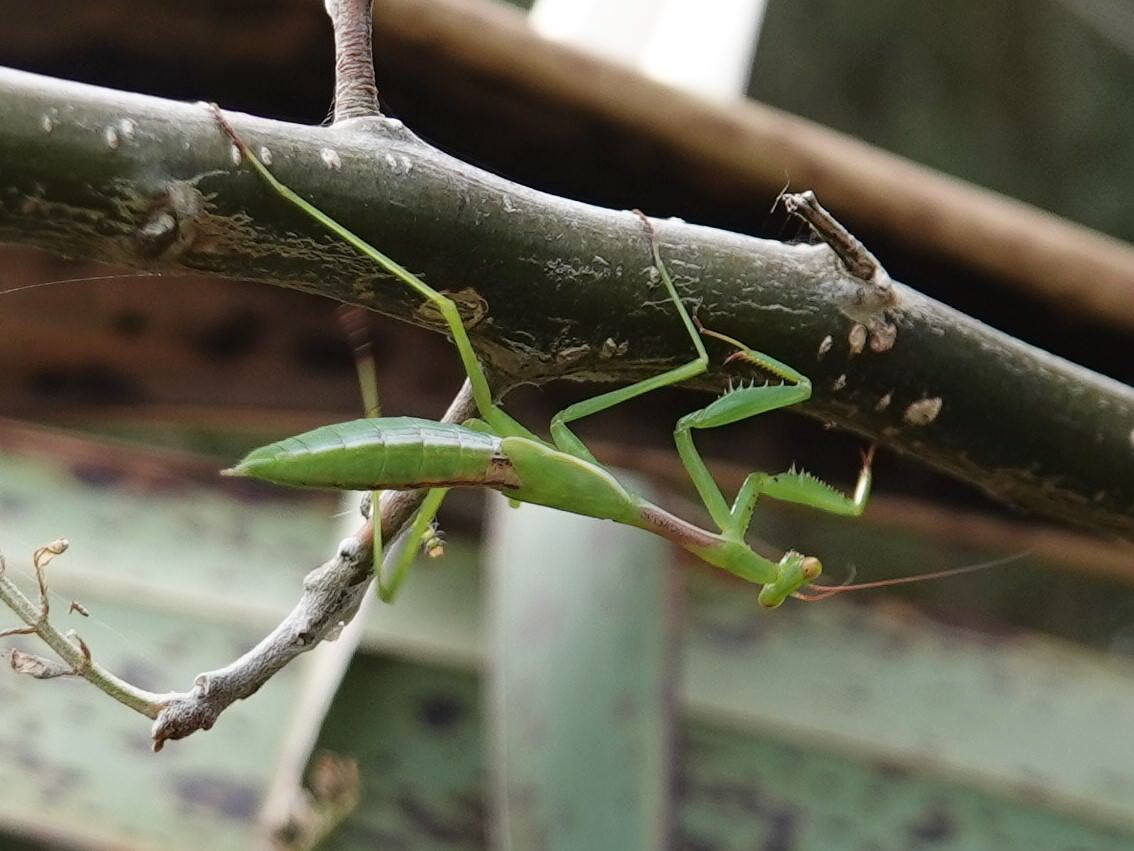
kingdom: Animalia
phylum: Arthropoda
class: Insecta
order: Mantodea
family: Miomantidae
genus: Miomantis
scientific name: Miomantis caffra
